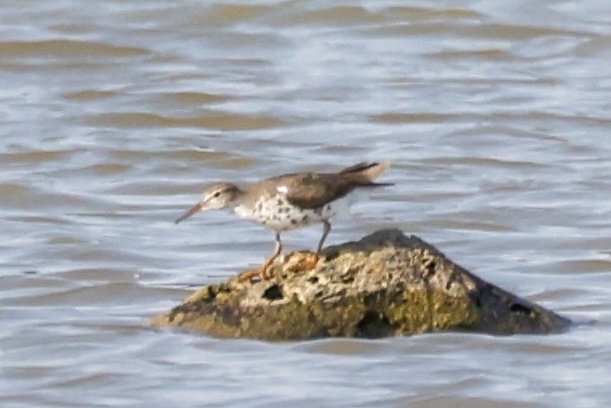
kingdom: Animalia
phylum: Chordata
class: Aves
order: Charadriiformes
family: Scolopacidae
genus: Actitis
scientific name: Actitis macularius
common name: Spotted sandpiper
